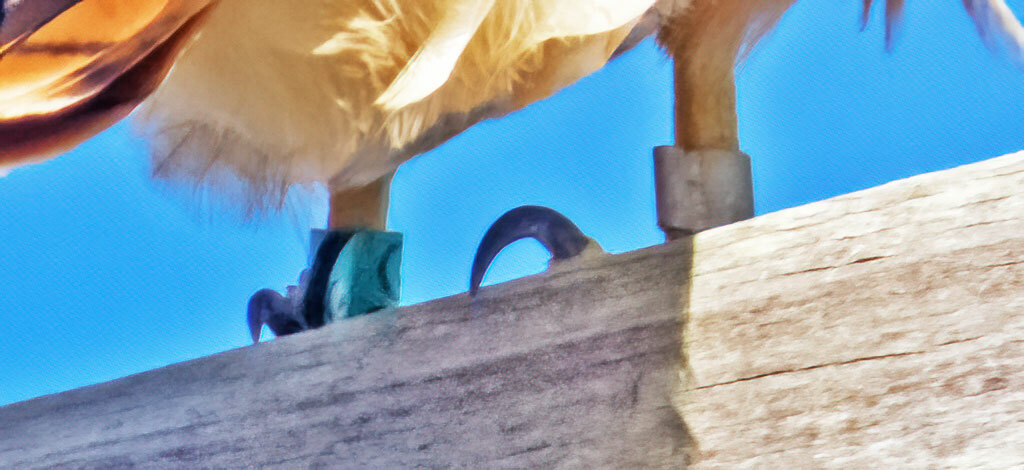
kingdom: Animalia
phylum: Chordata
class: Aves
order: Accipitriformes
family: Accipitridae
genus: Buteo
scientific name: Buteo jamaicensis
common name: Red-tailed hawk
